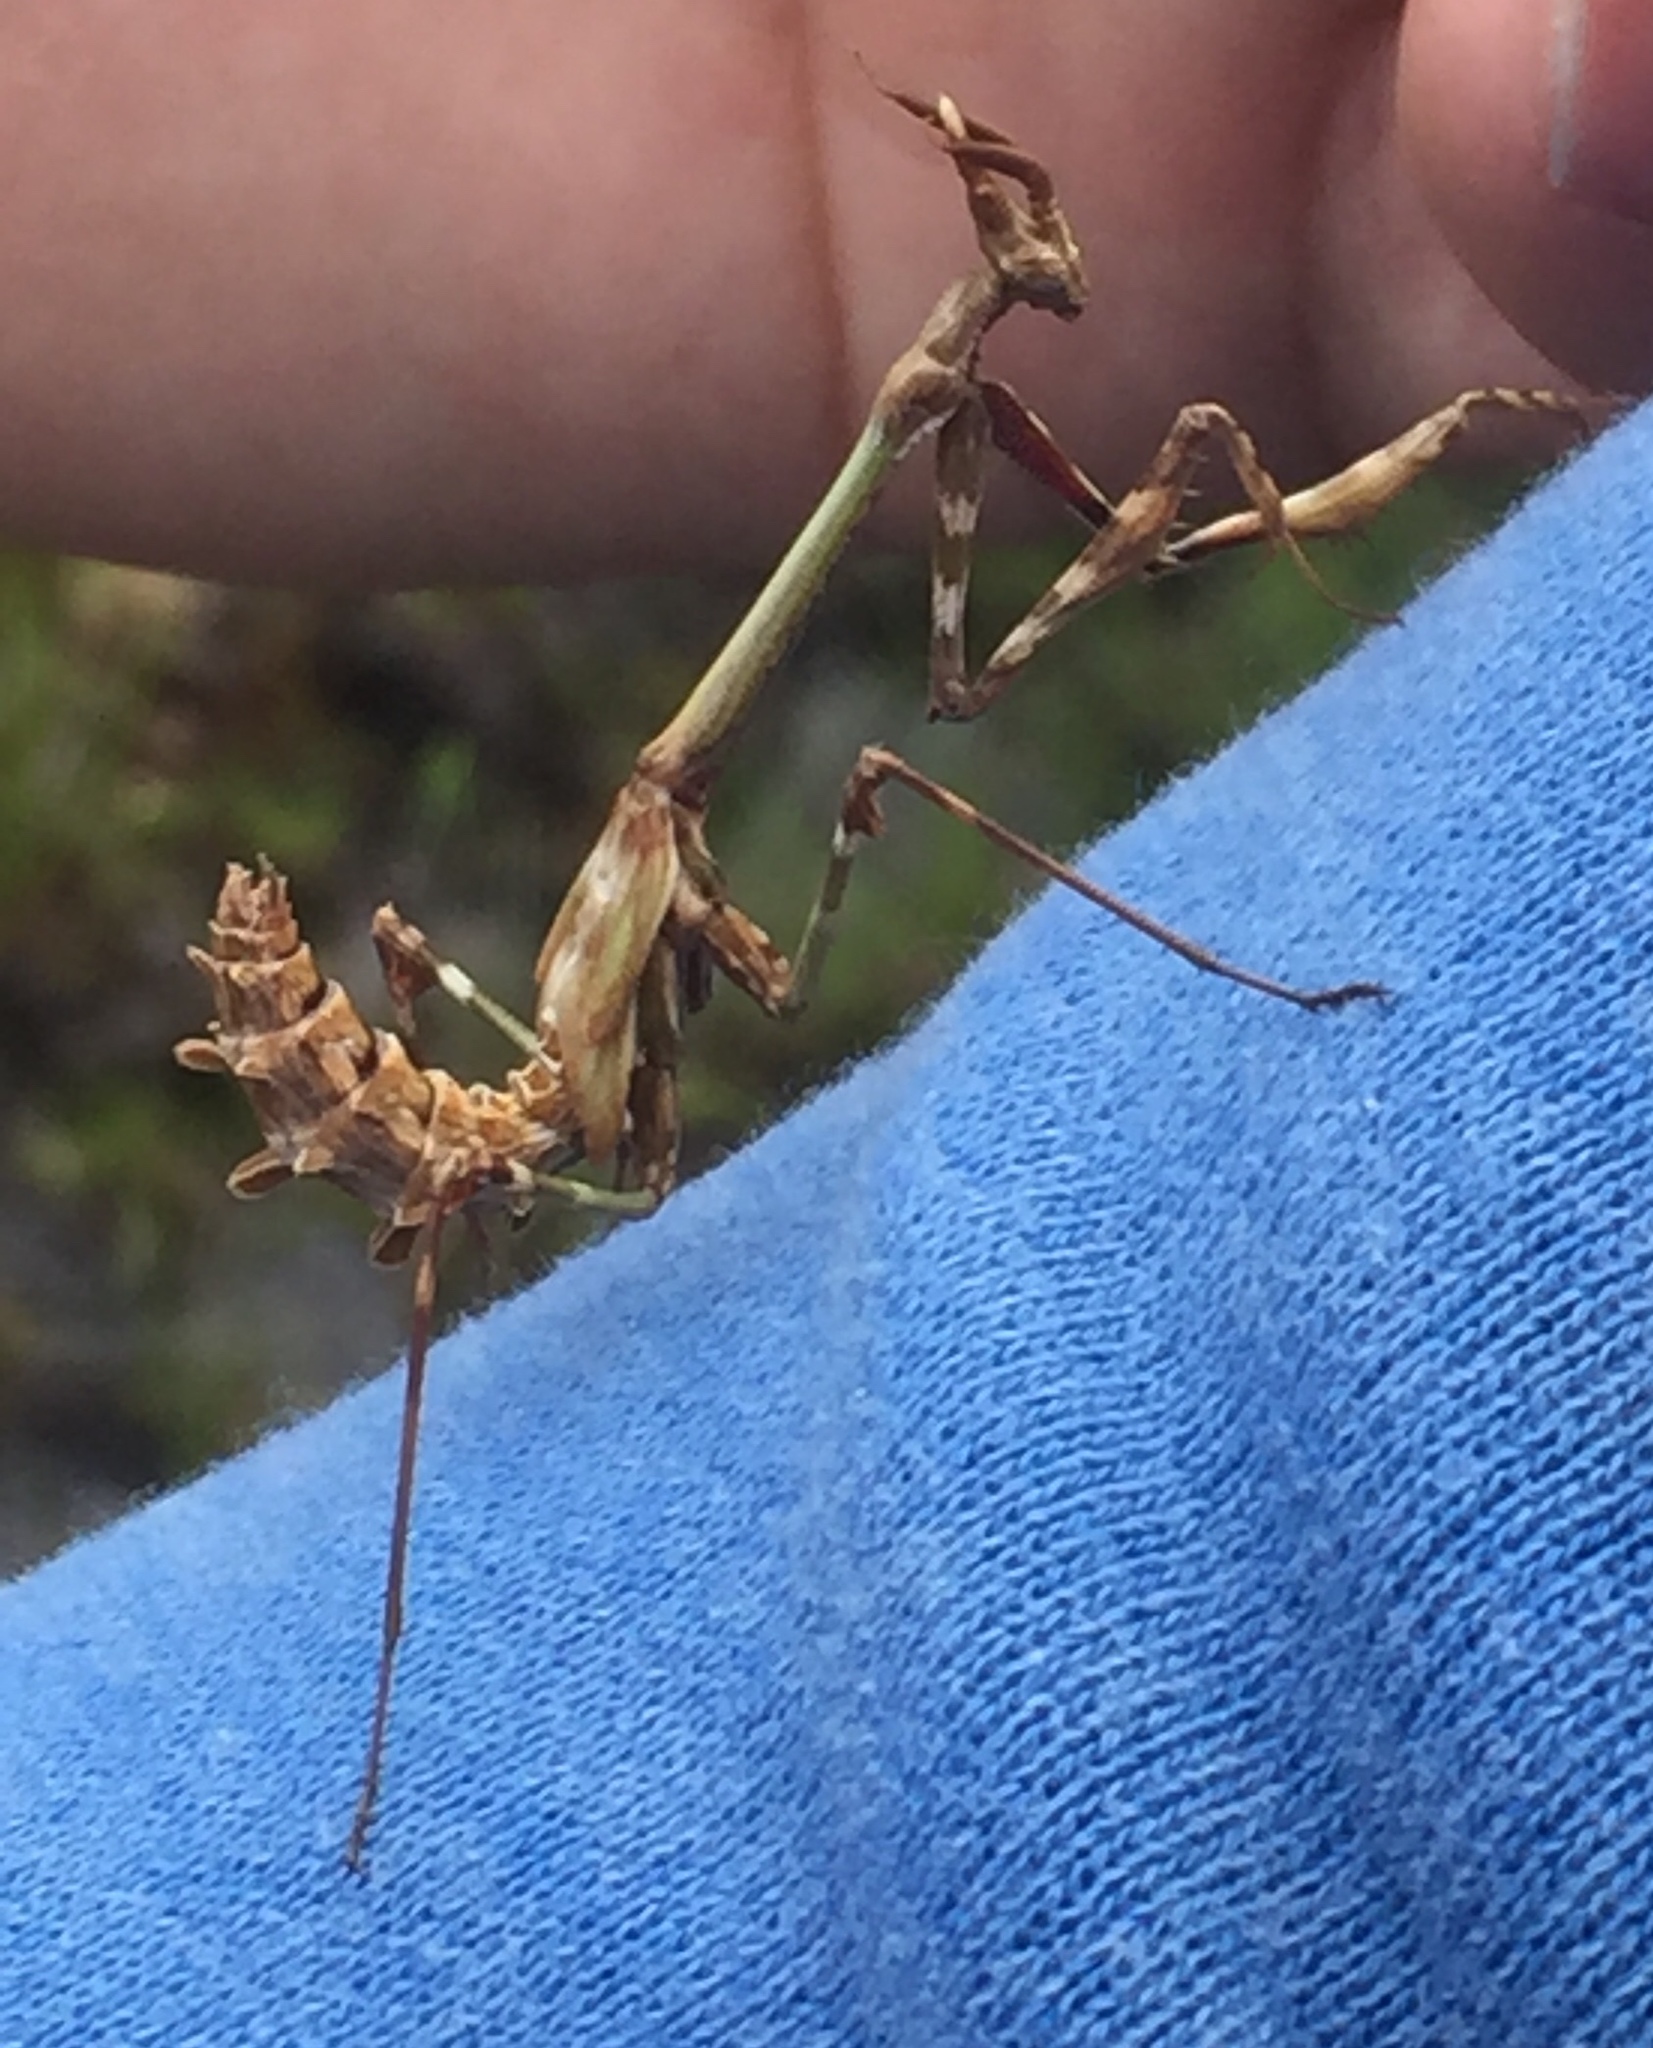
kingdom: Animalia
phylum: Arthropoda
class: Insecta
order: Mantodea
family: Empusidae
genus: Empusa
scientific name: Empusa pennata
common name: Conehead mantis
